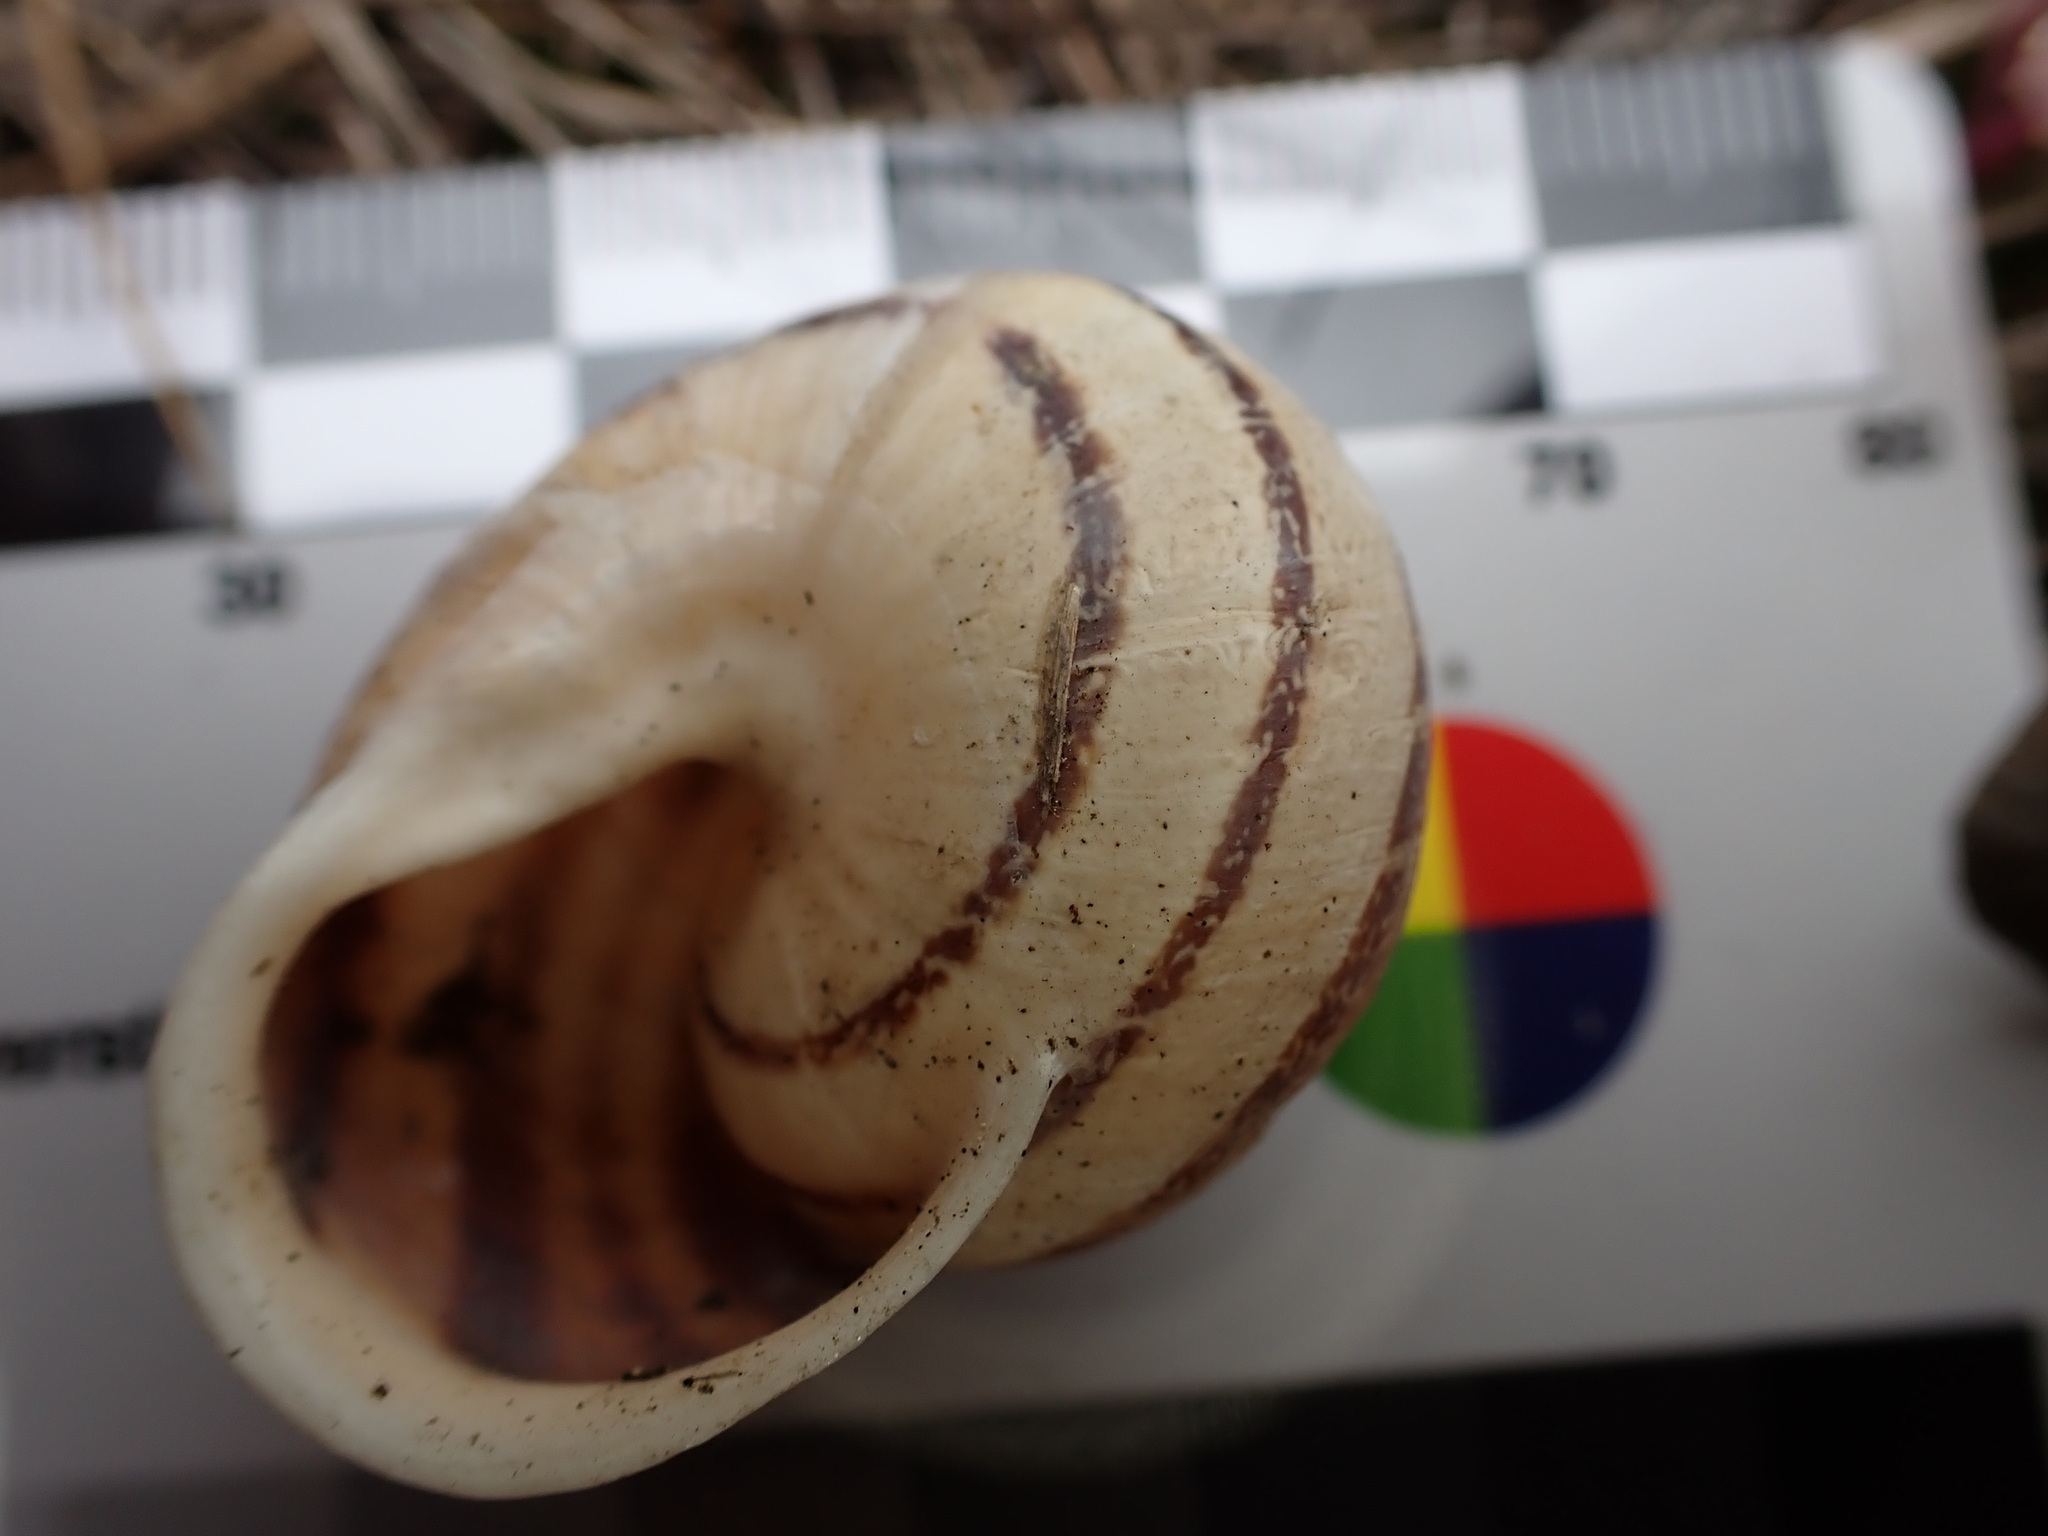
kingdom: Animalia
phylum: Mollusca
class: Gastropoda
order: Stylommatophora
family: Helicidae
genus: Eobania
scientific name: Eobania vermiculata
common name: Chocolateband snail
